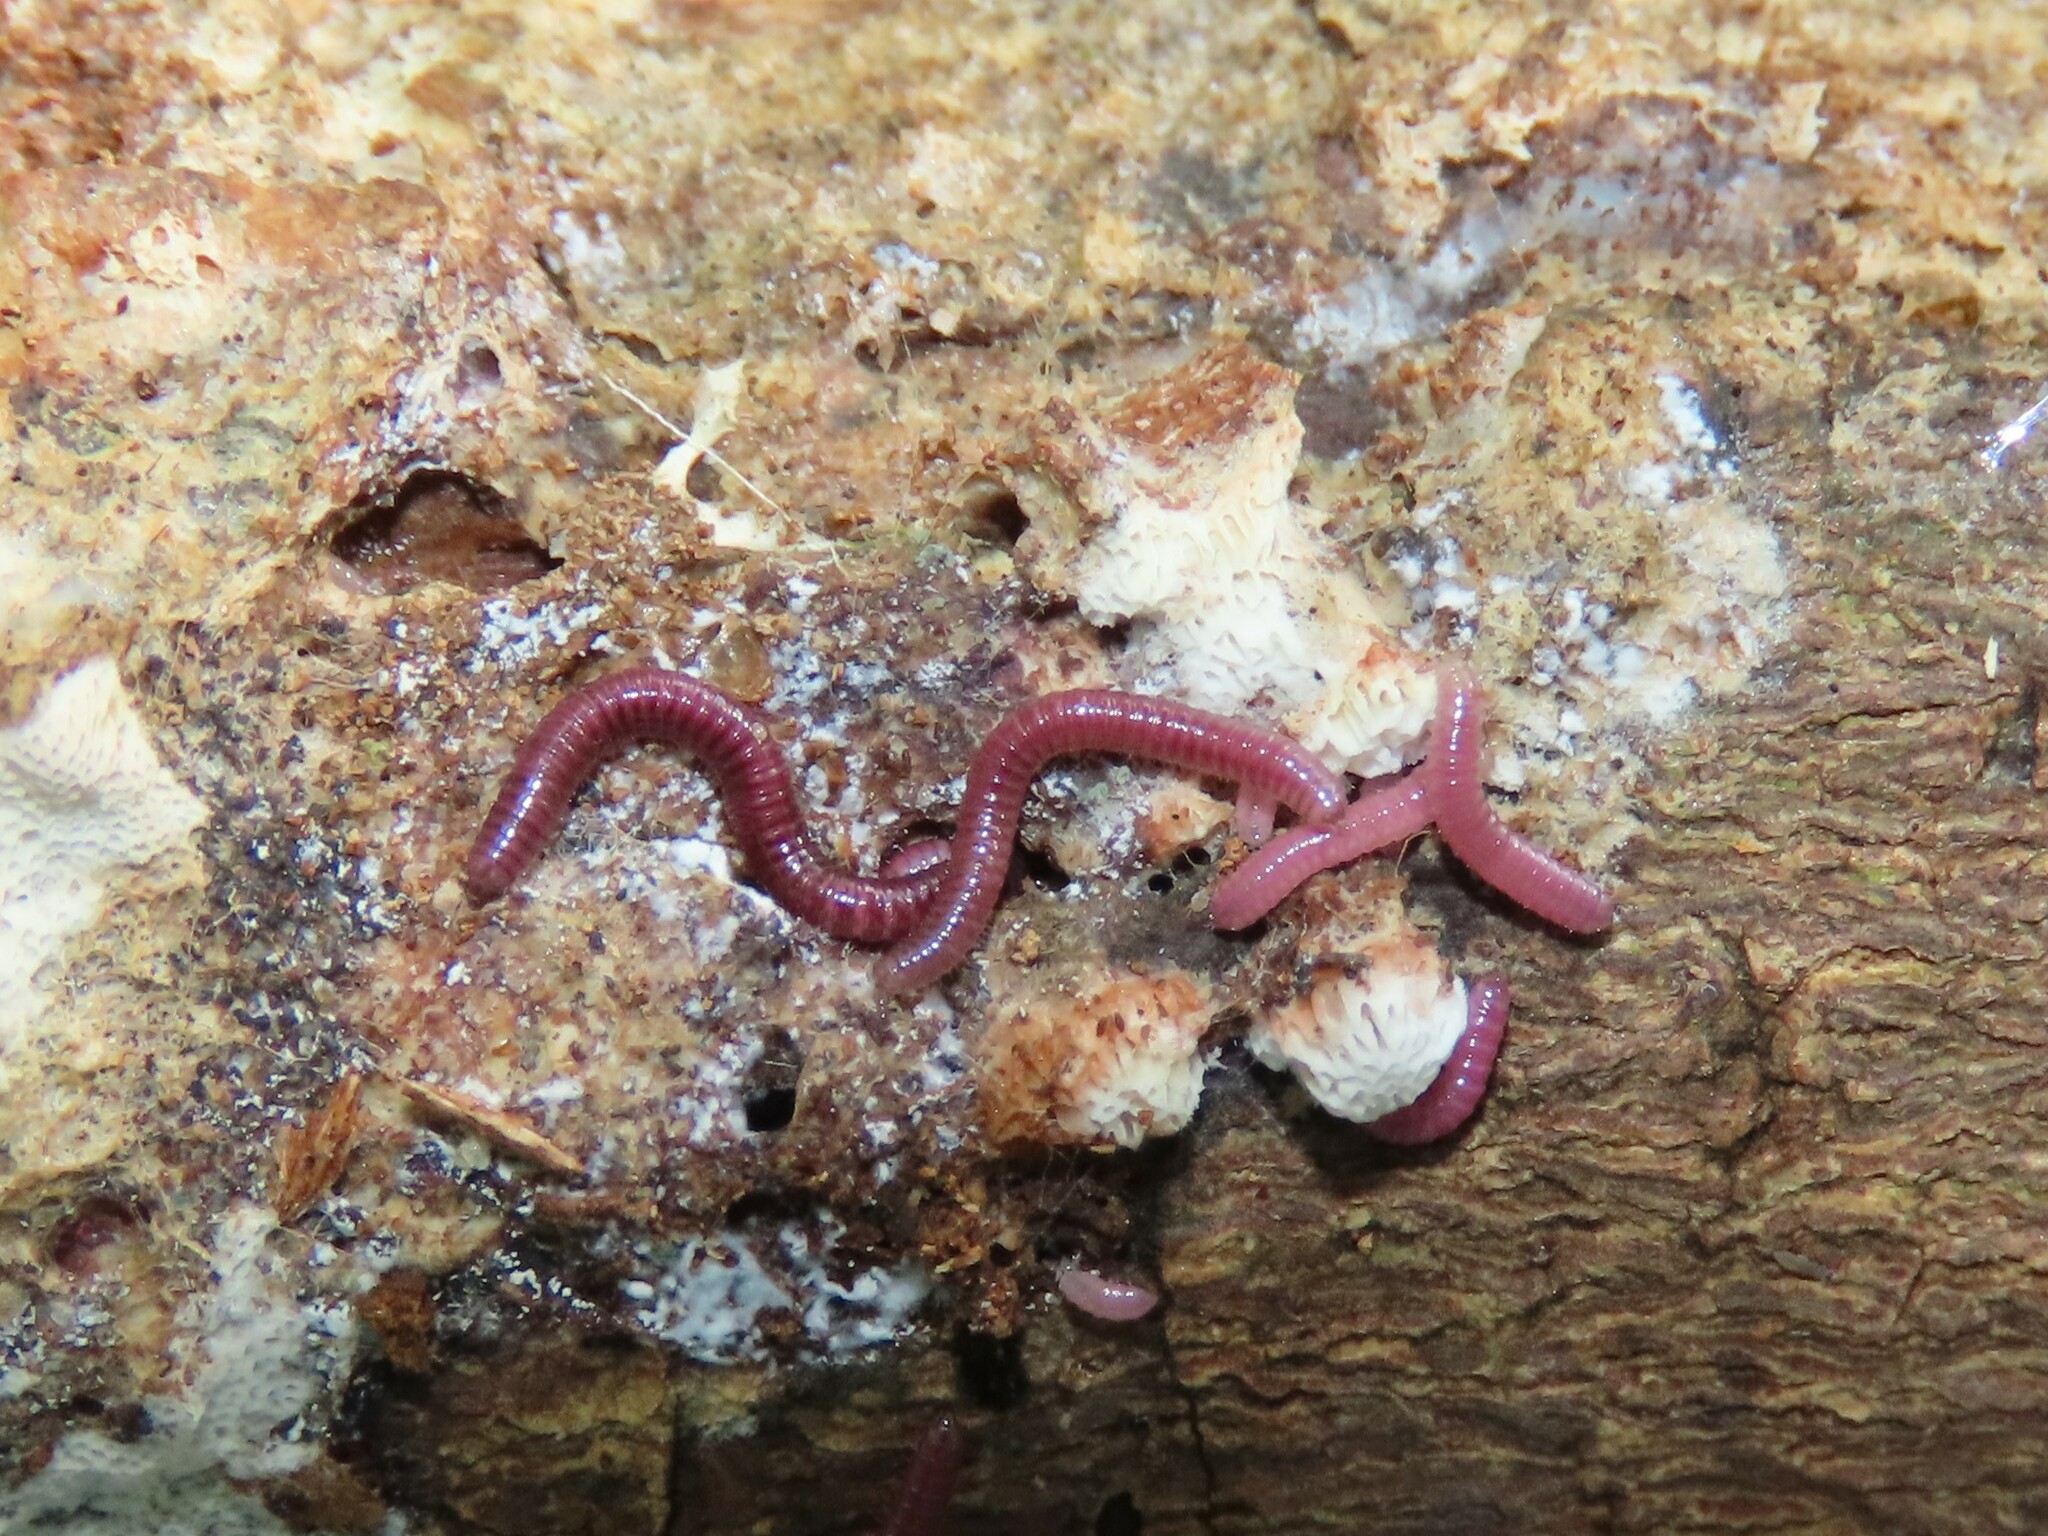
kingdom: Animalia
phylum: Arthropoda
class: Diplopoda
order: Polyzoniida
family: Siphonotidae
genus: Rhinotus
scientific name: Rhinotus purpureus
